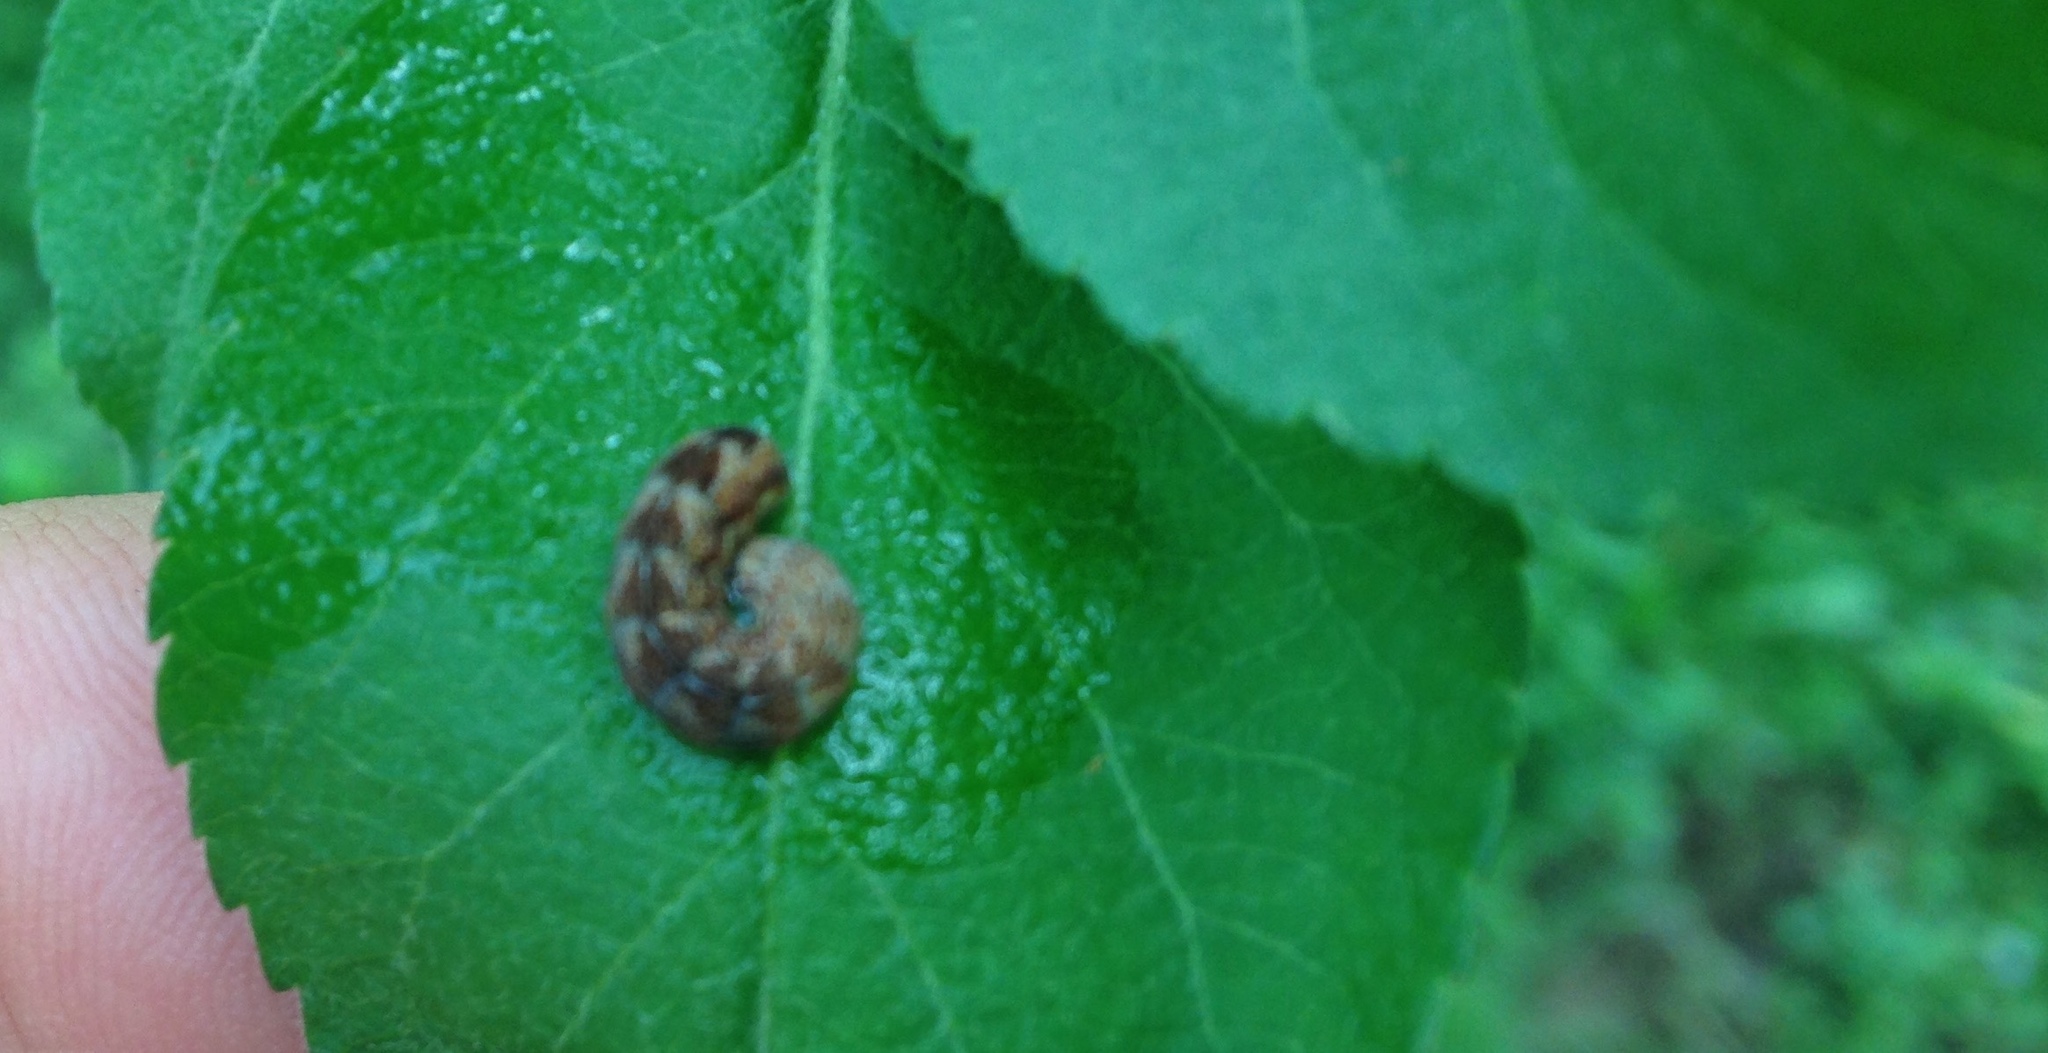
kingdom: Animalia
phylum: Arthropoda
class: Insecta
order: Lepidoptera
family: Noctuidae
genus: Agrochola
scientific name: Agrochola bicolorago
